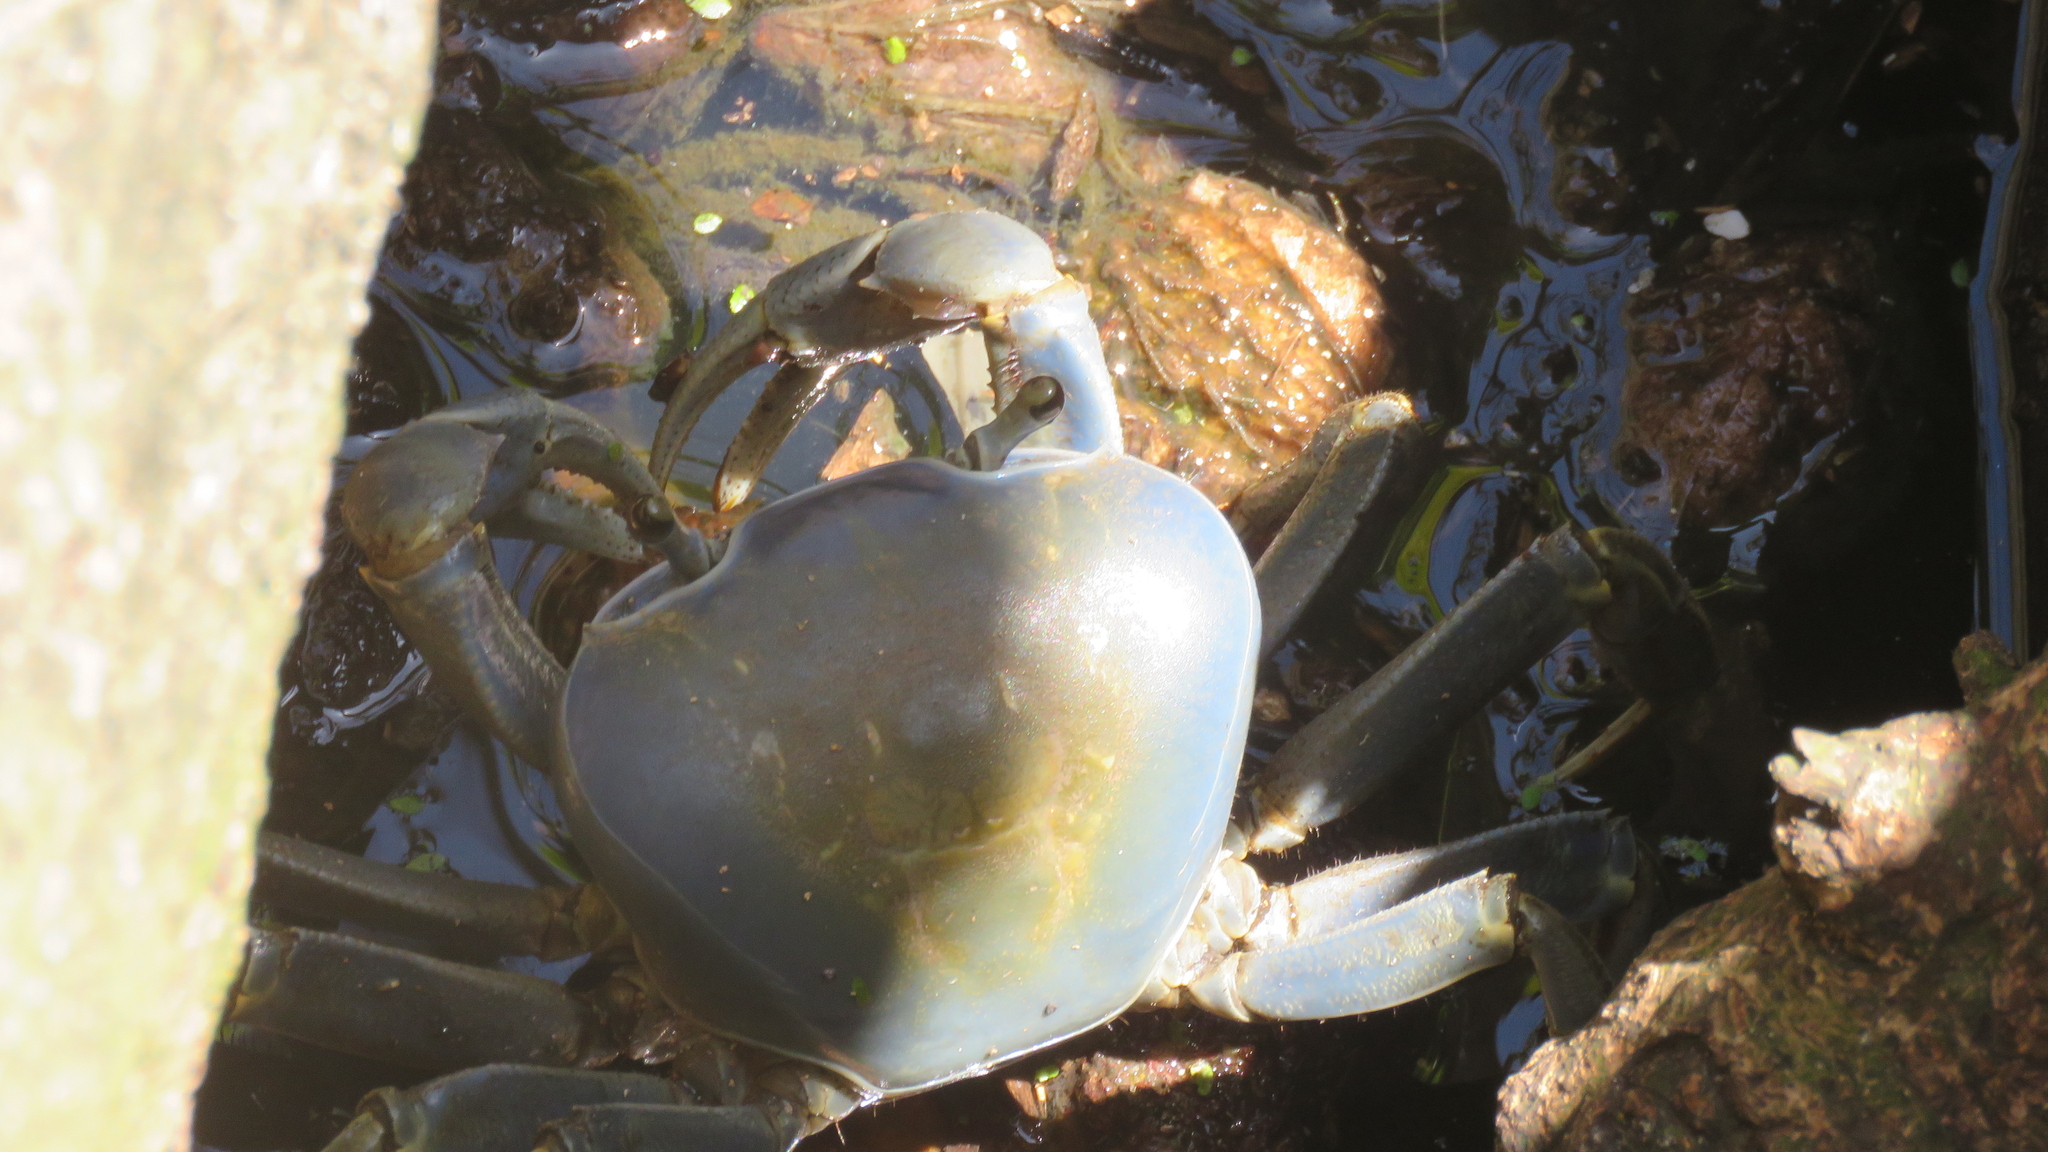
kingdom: Animalia
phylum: Arthropoda
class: Malacostraca
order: Decapoda
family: Gecarcinidae
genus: Cardisoma
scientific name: Cardisoma guanhumi
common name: Great land crab
